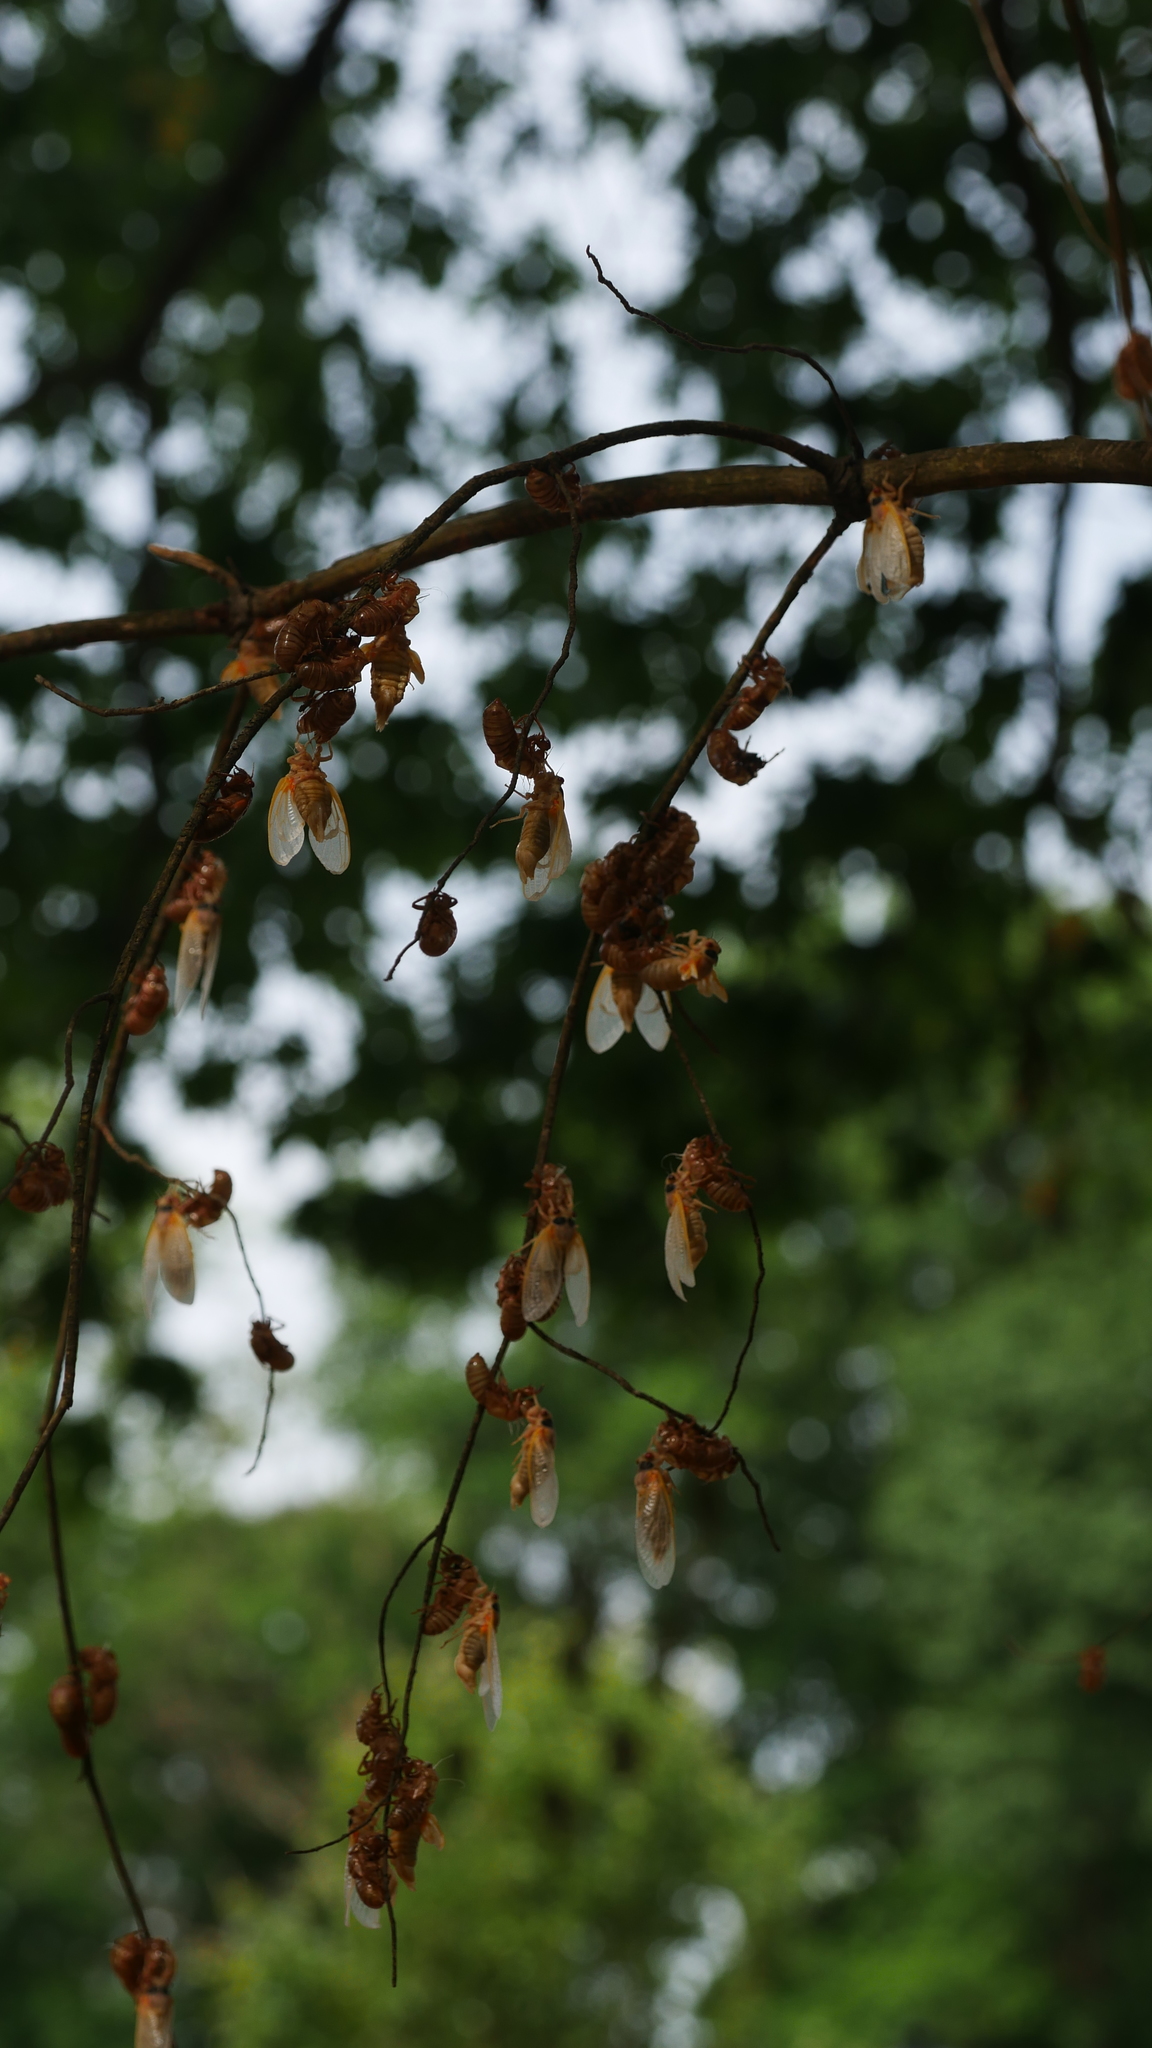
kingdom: Animalia
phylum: Arthropoda
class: Insecta
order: Hemiptera
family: Cicadidae
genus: Magicicada
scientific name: Magicicada
